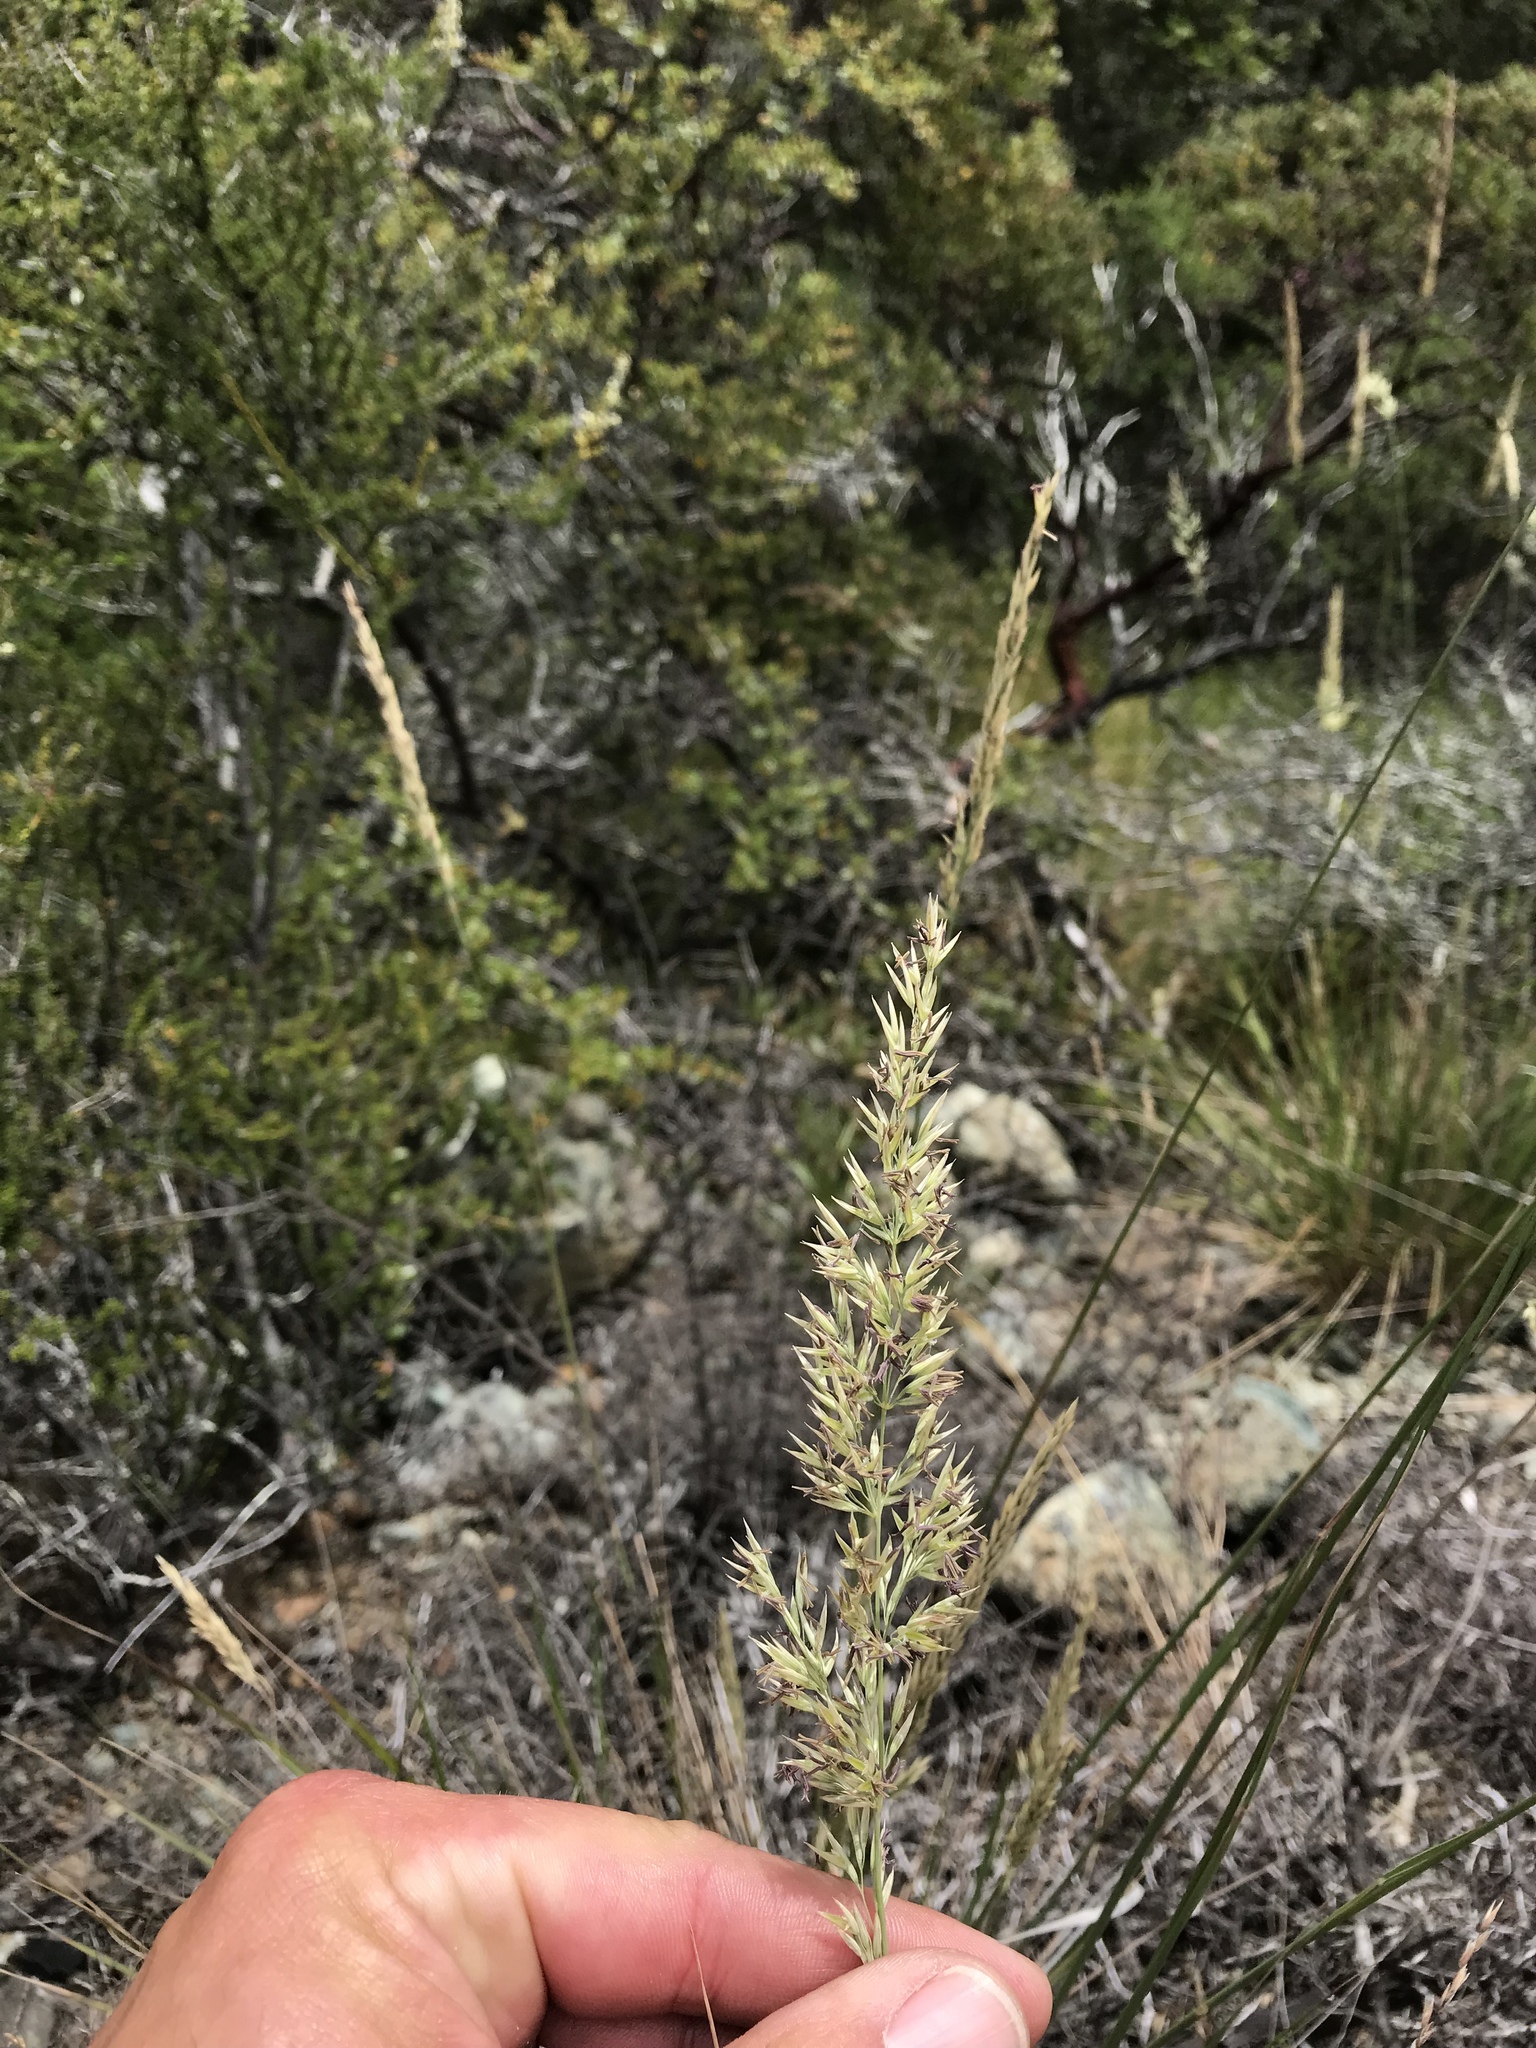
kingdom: Plantae
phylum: Tracheophyta
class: Liliopsida
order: Poales
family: Poaceae
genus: Calamagrostis
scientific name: Calamagrostis ophitidis
